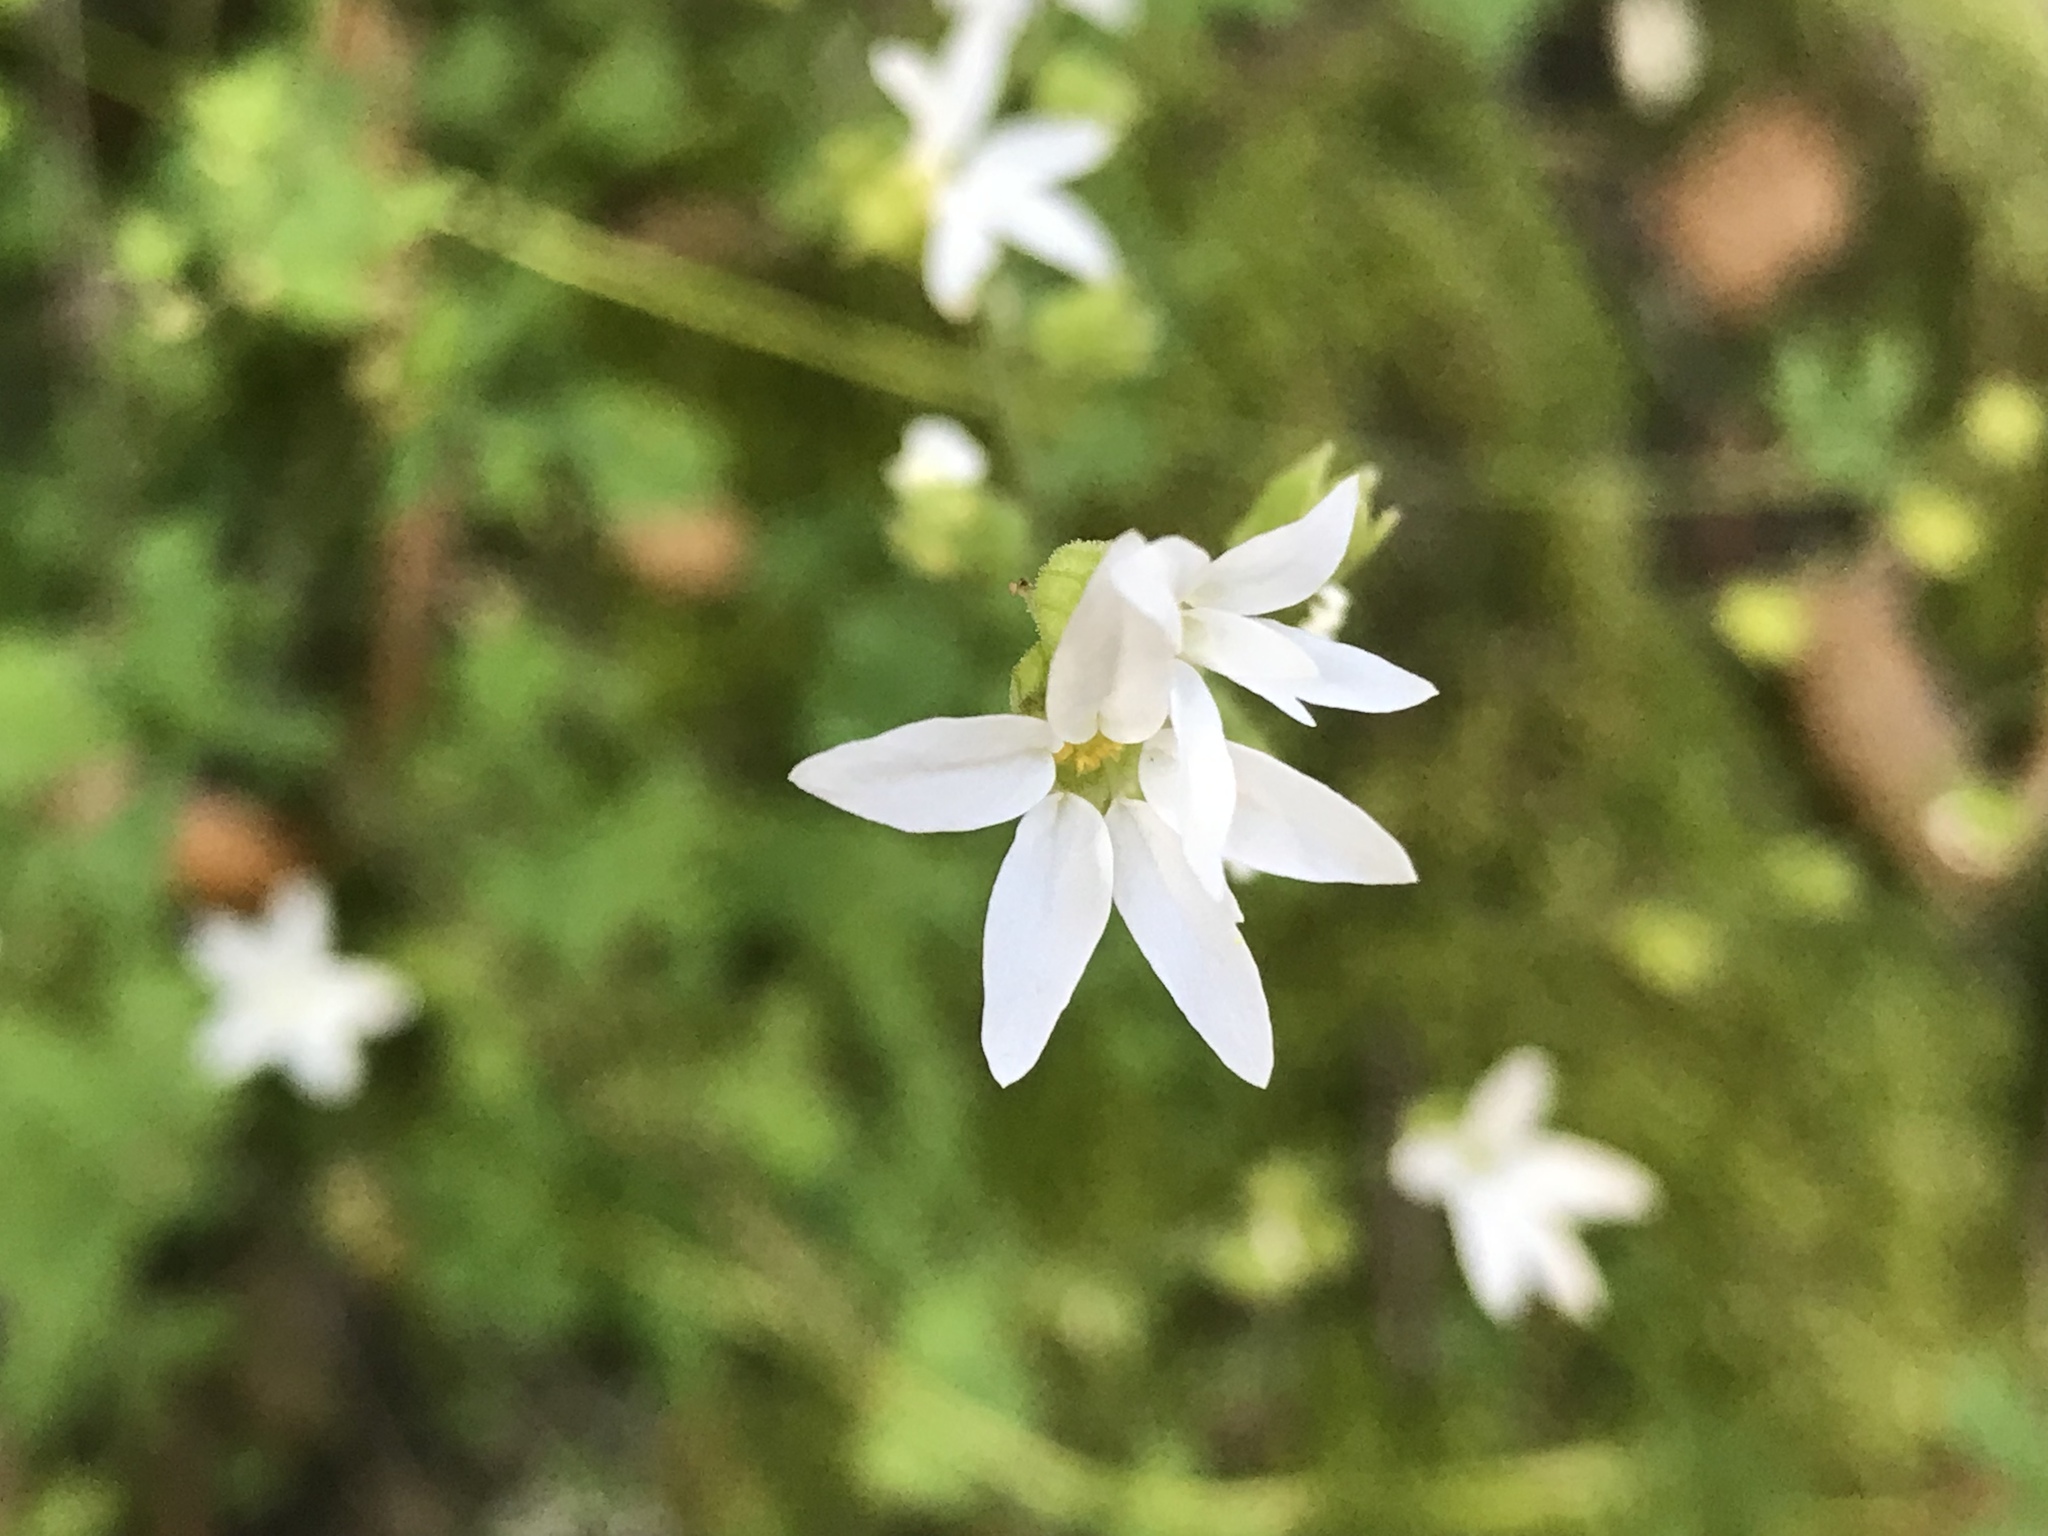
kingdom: Plantae
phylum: Tracheophyta
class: Magnoliopsida
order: Saxifragales
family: Saxifragaceae
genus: Lithophragma
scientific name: Lithophragma heterophyllum
